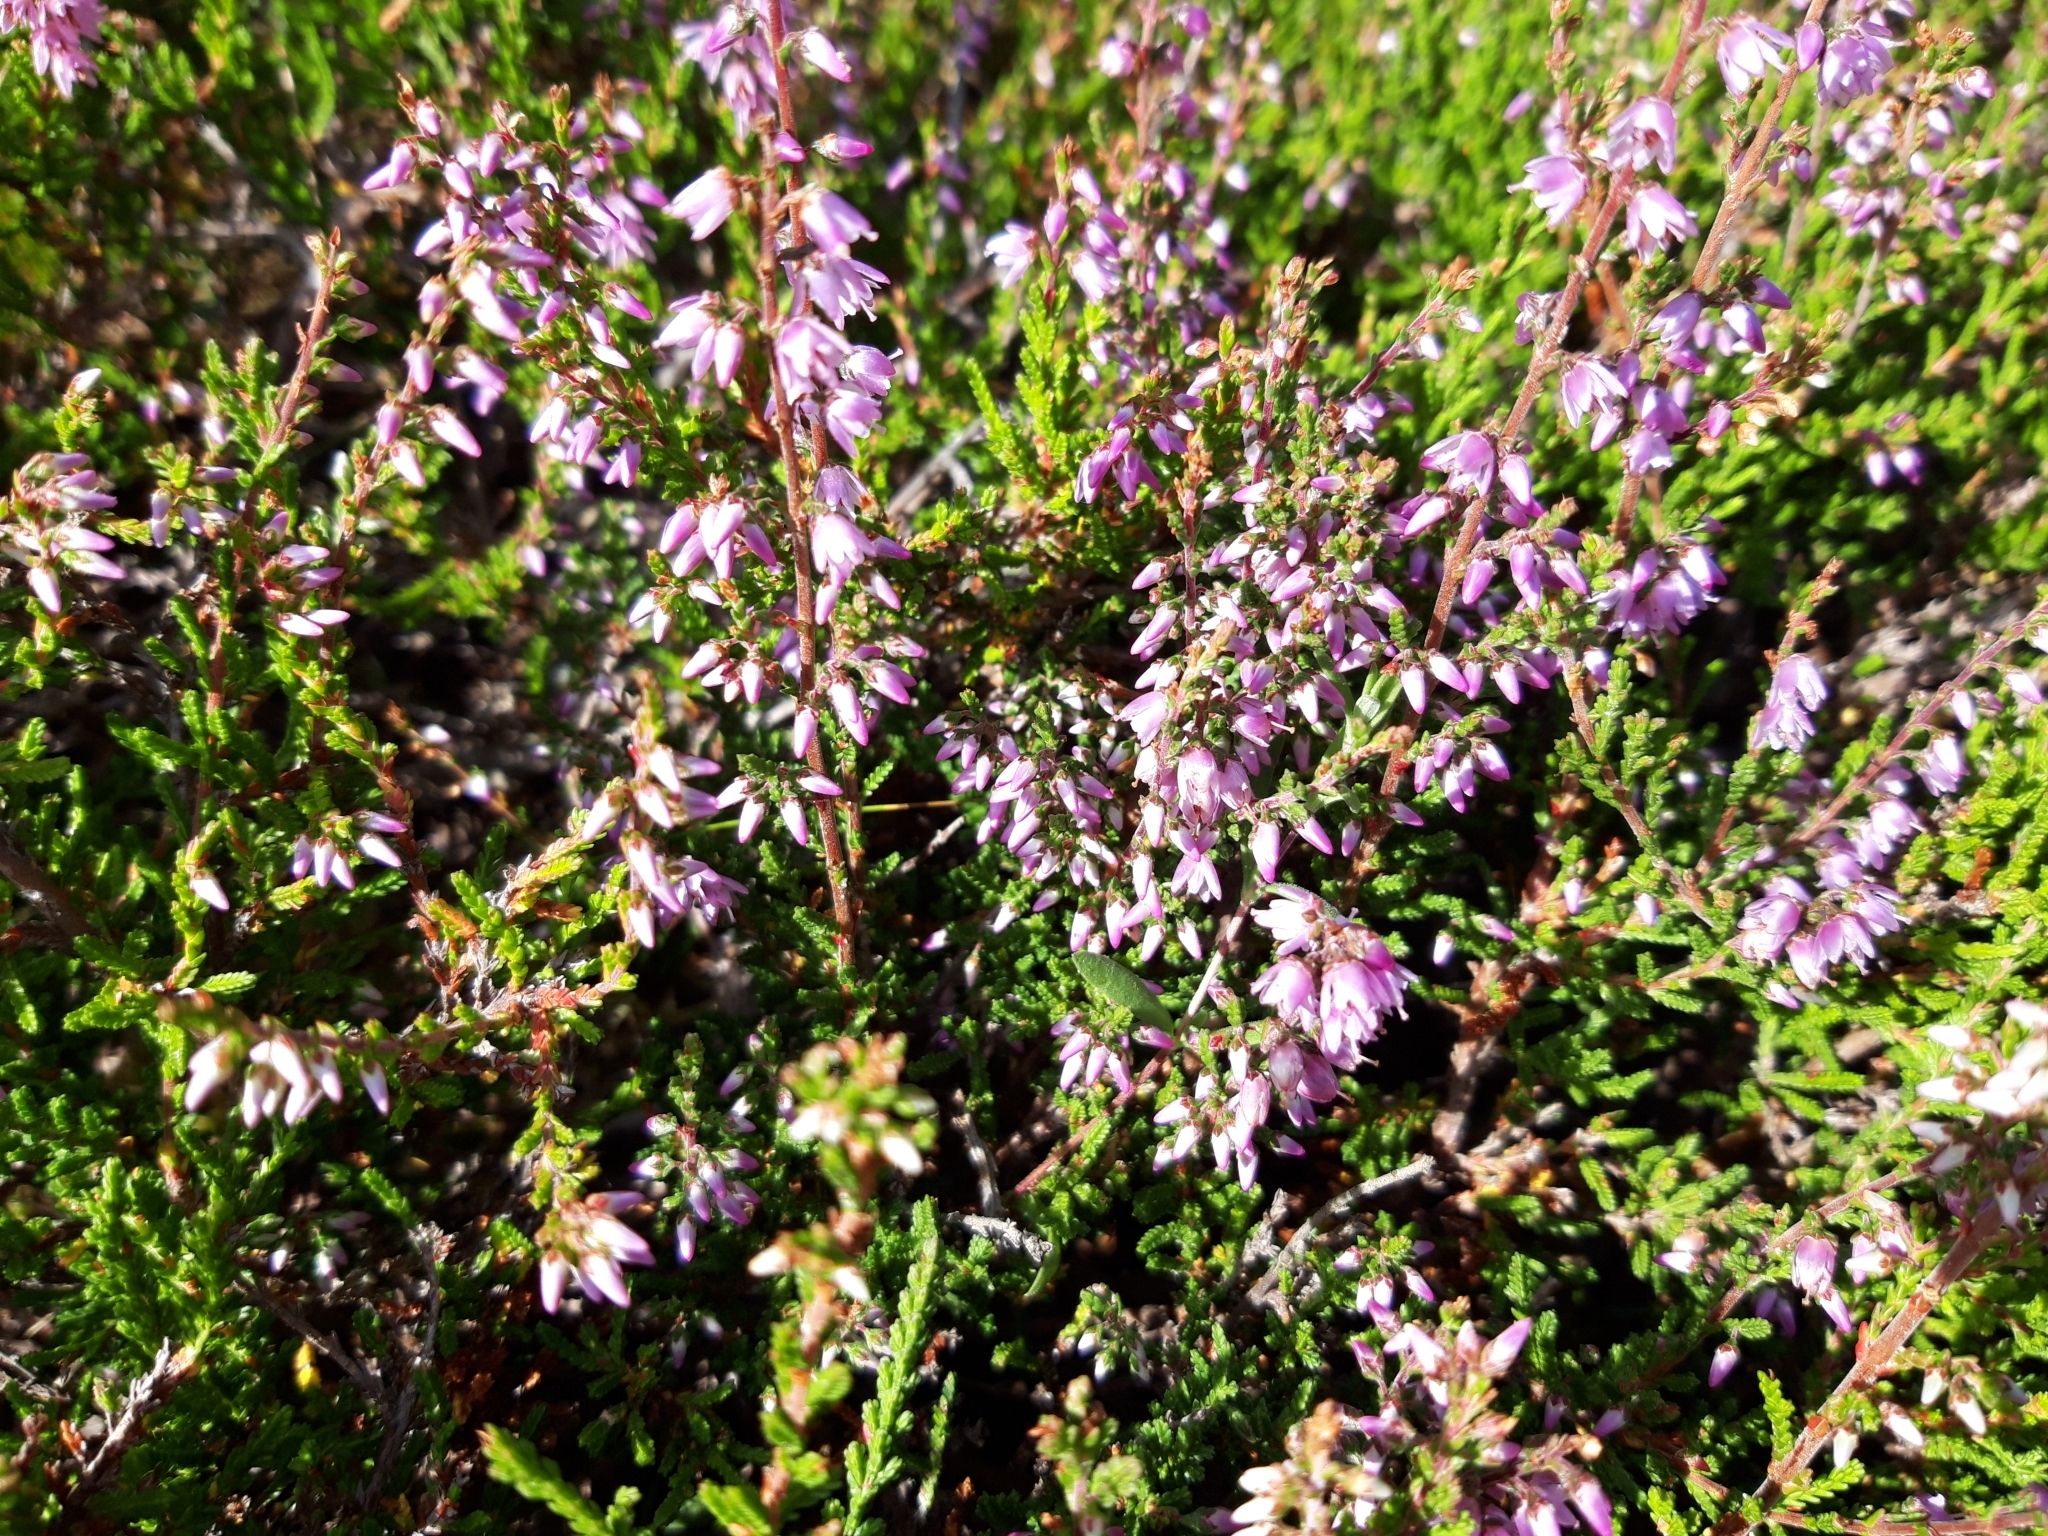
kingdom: Plantae
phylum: Tracheophyta
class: Magnoliopsida
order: Ericales
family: Ericaceae
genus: Calluna
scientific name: Calluna vulgaris
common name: Heather
